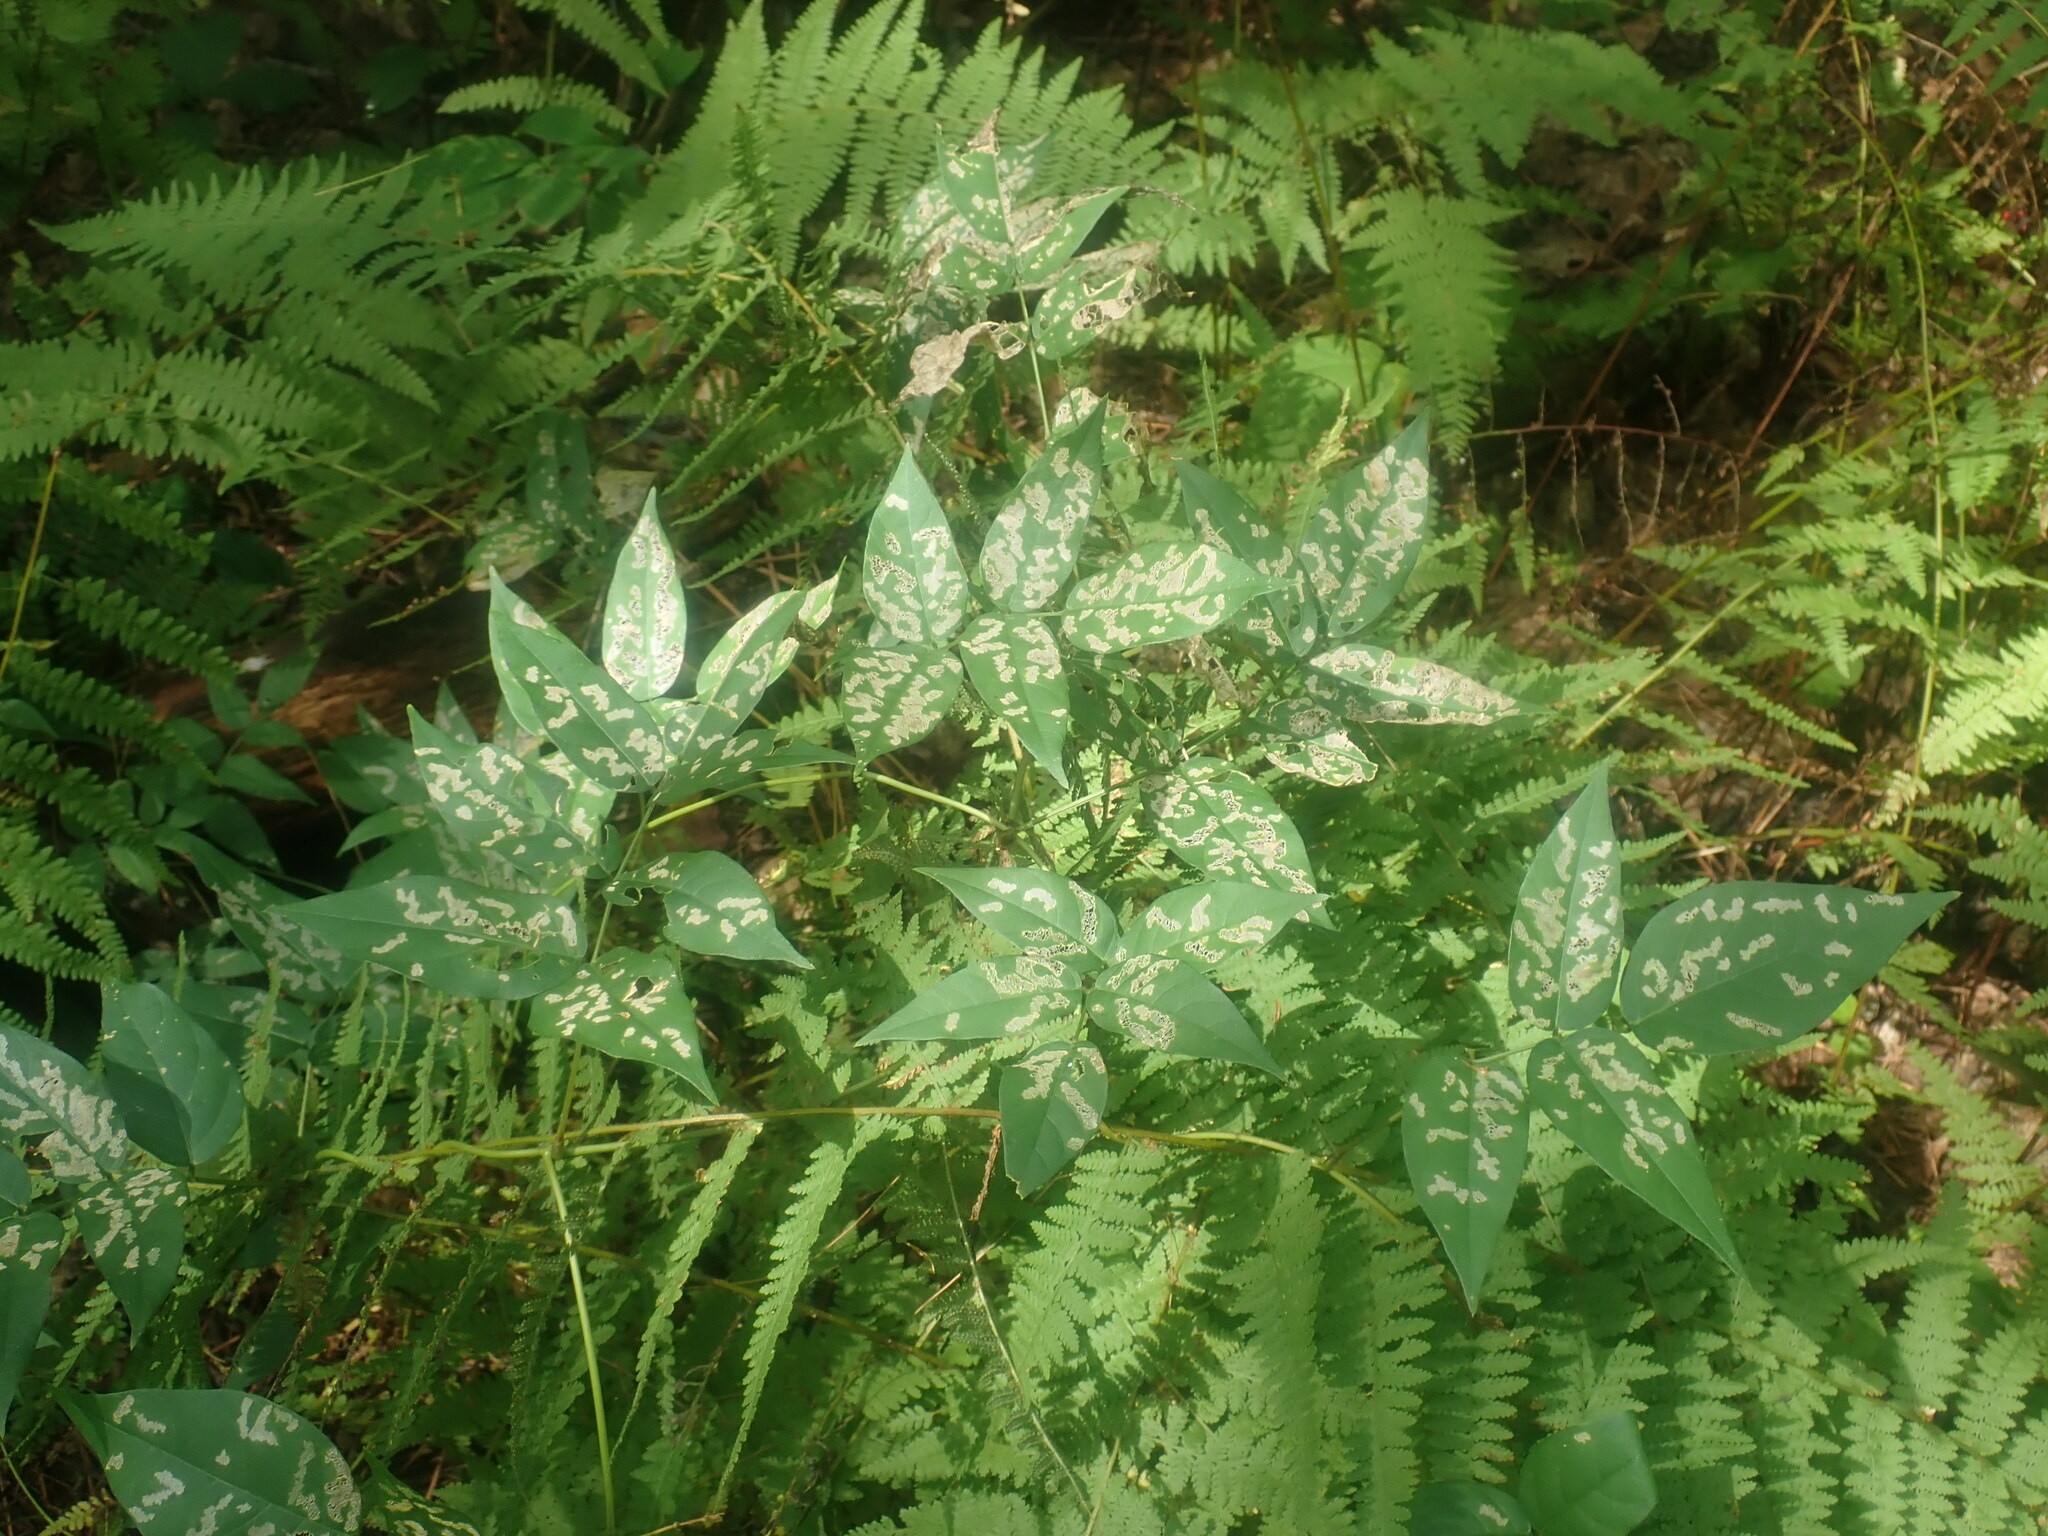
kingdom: Plantae
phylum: Tracheophyta
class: Magnoliopsida
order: Fabales
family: Fabaceae
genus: Apios
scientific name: Apios americana
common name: American potato-bean
